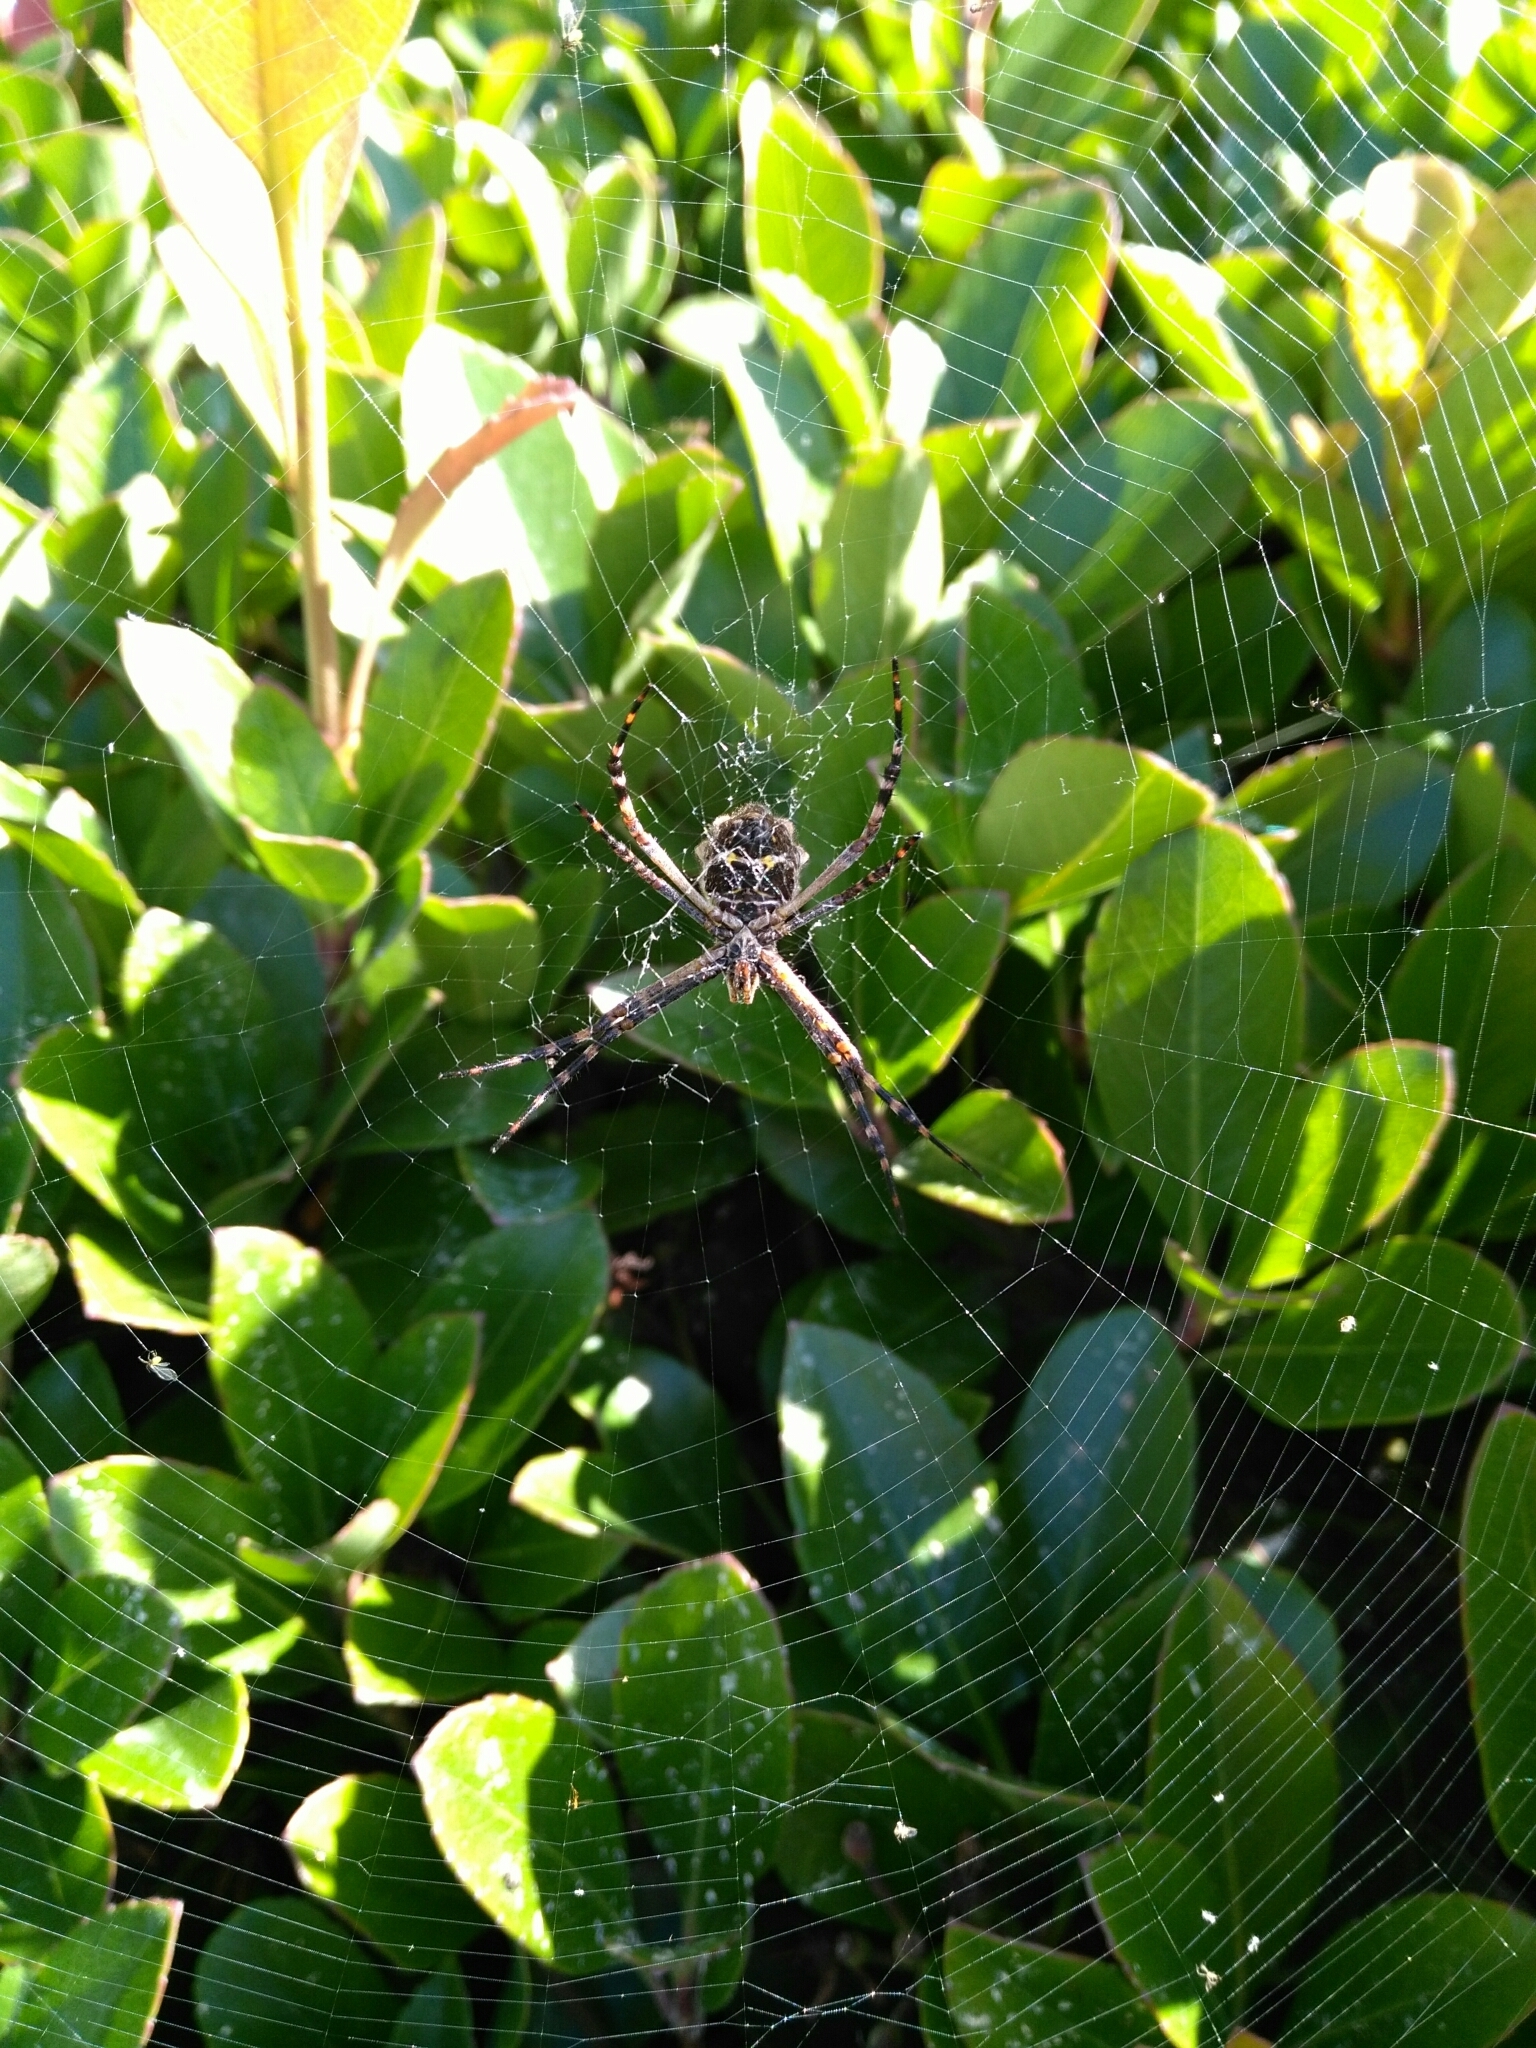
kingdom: Animalia
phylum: Arthropoda
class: Arachnida
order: Araneae
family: Araneidae
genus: Argiope
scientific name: Argiope argentata
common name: Orb weavers
